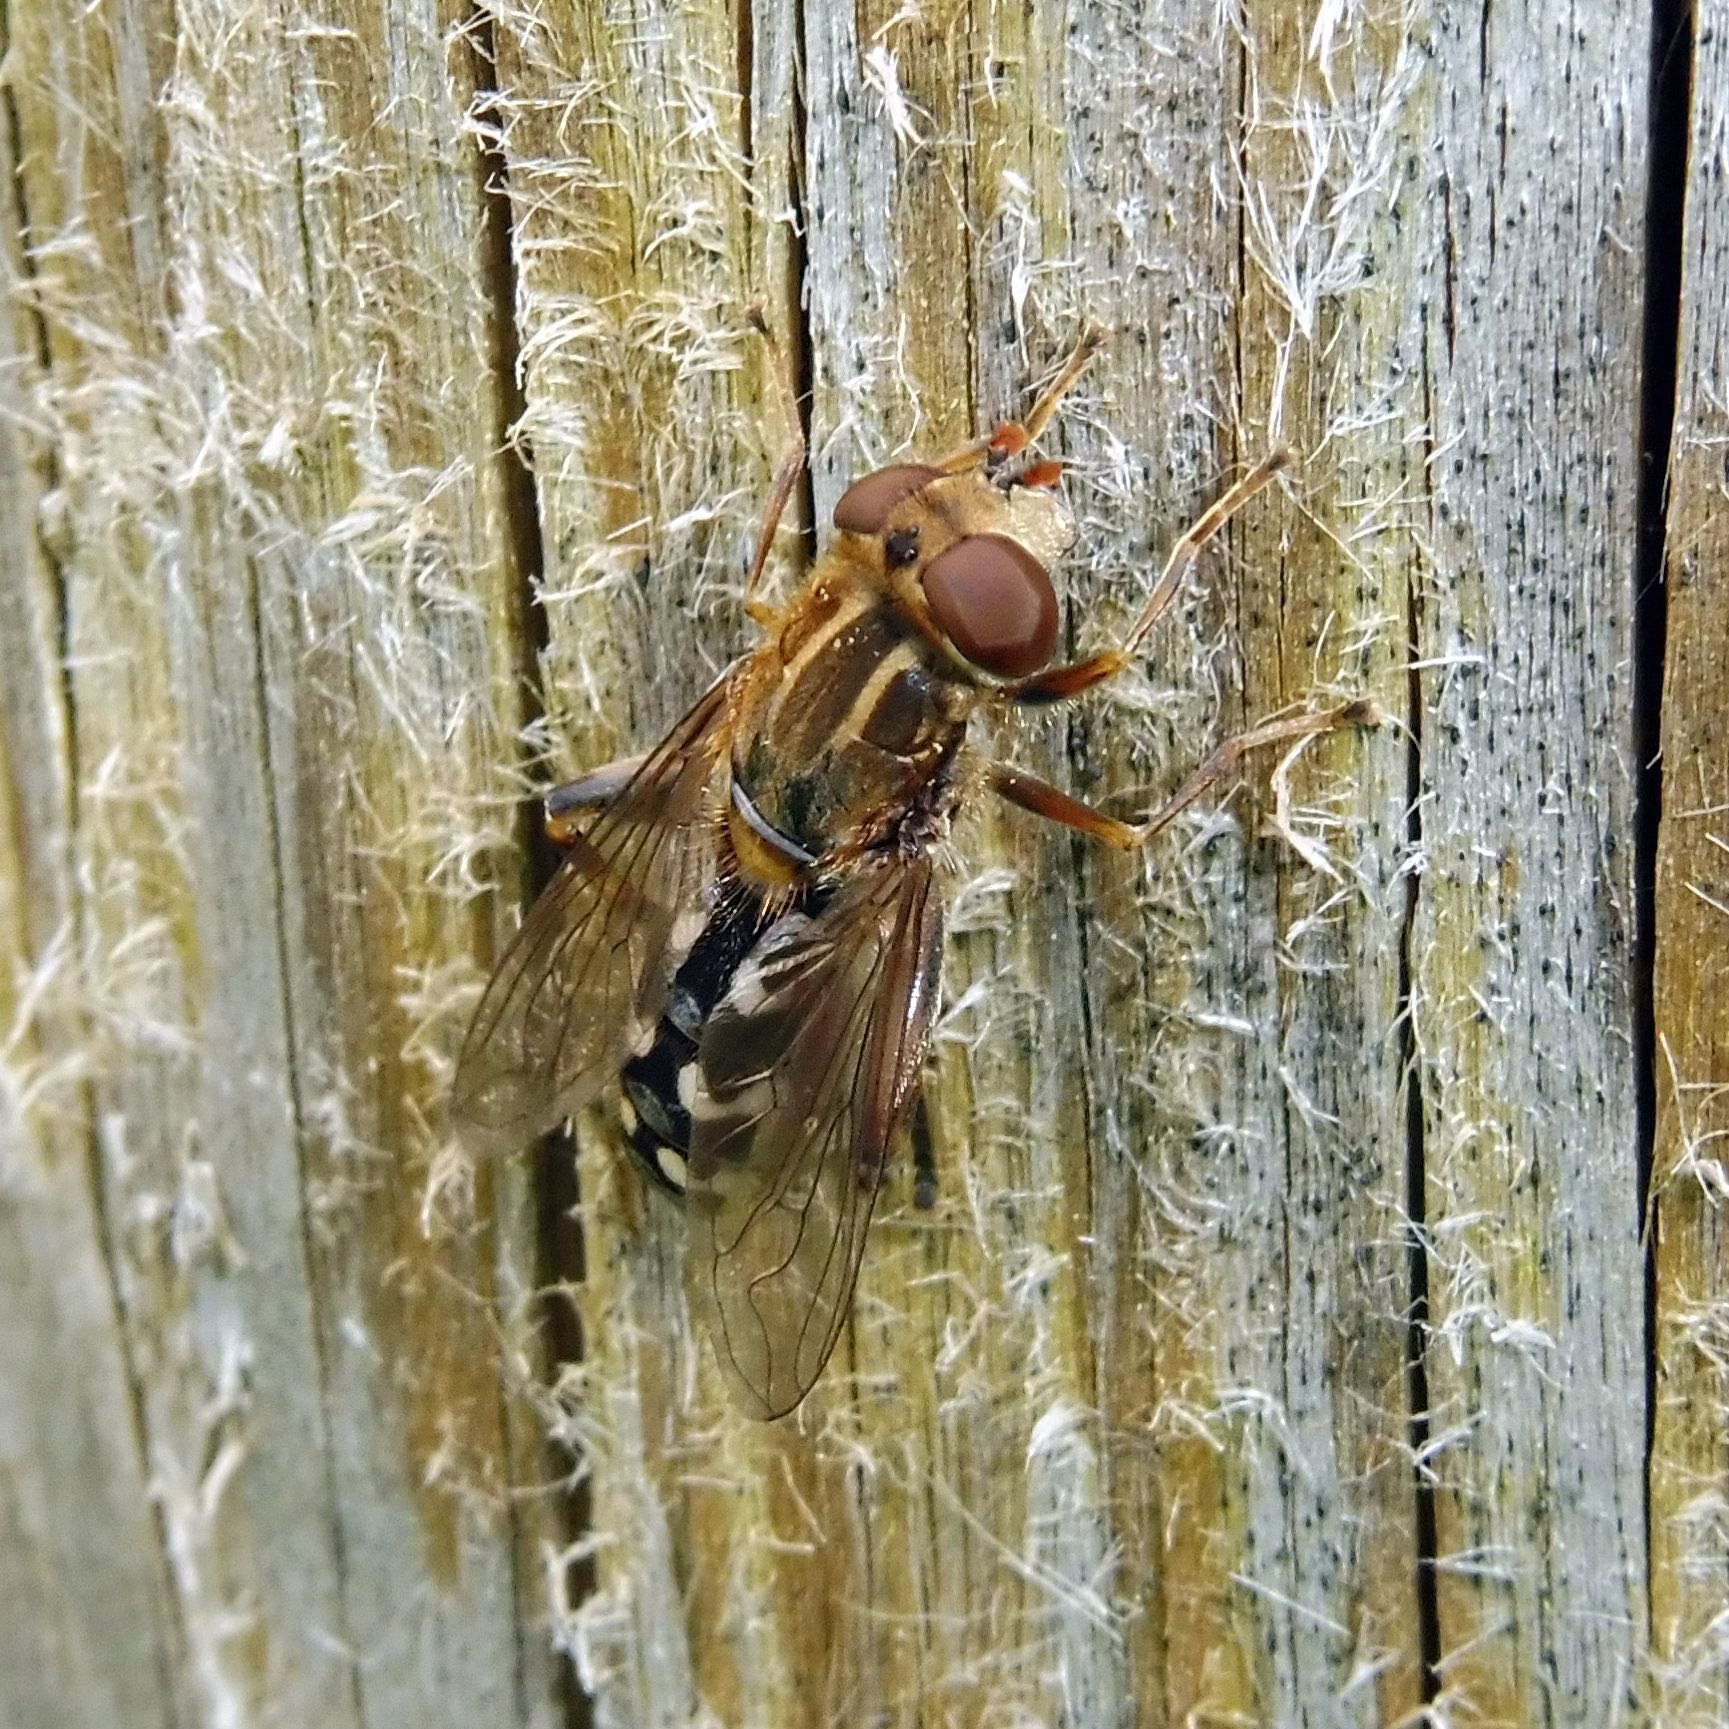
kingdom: Animalia
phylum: Arthropoda
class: Insecta
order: Diptera
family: Syrphidae
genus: Anasimyia
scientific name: Anasimyia contracta
